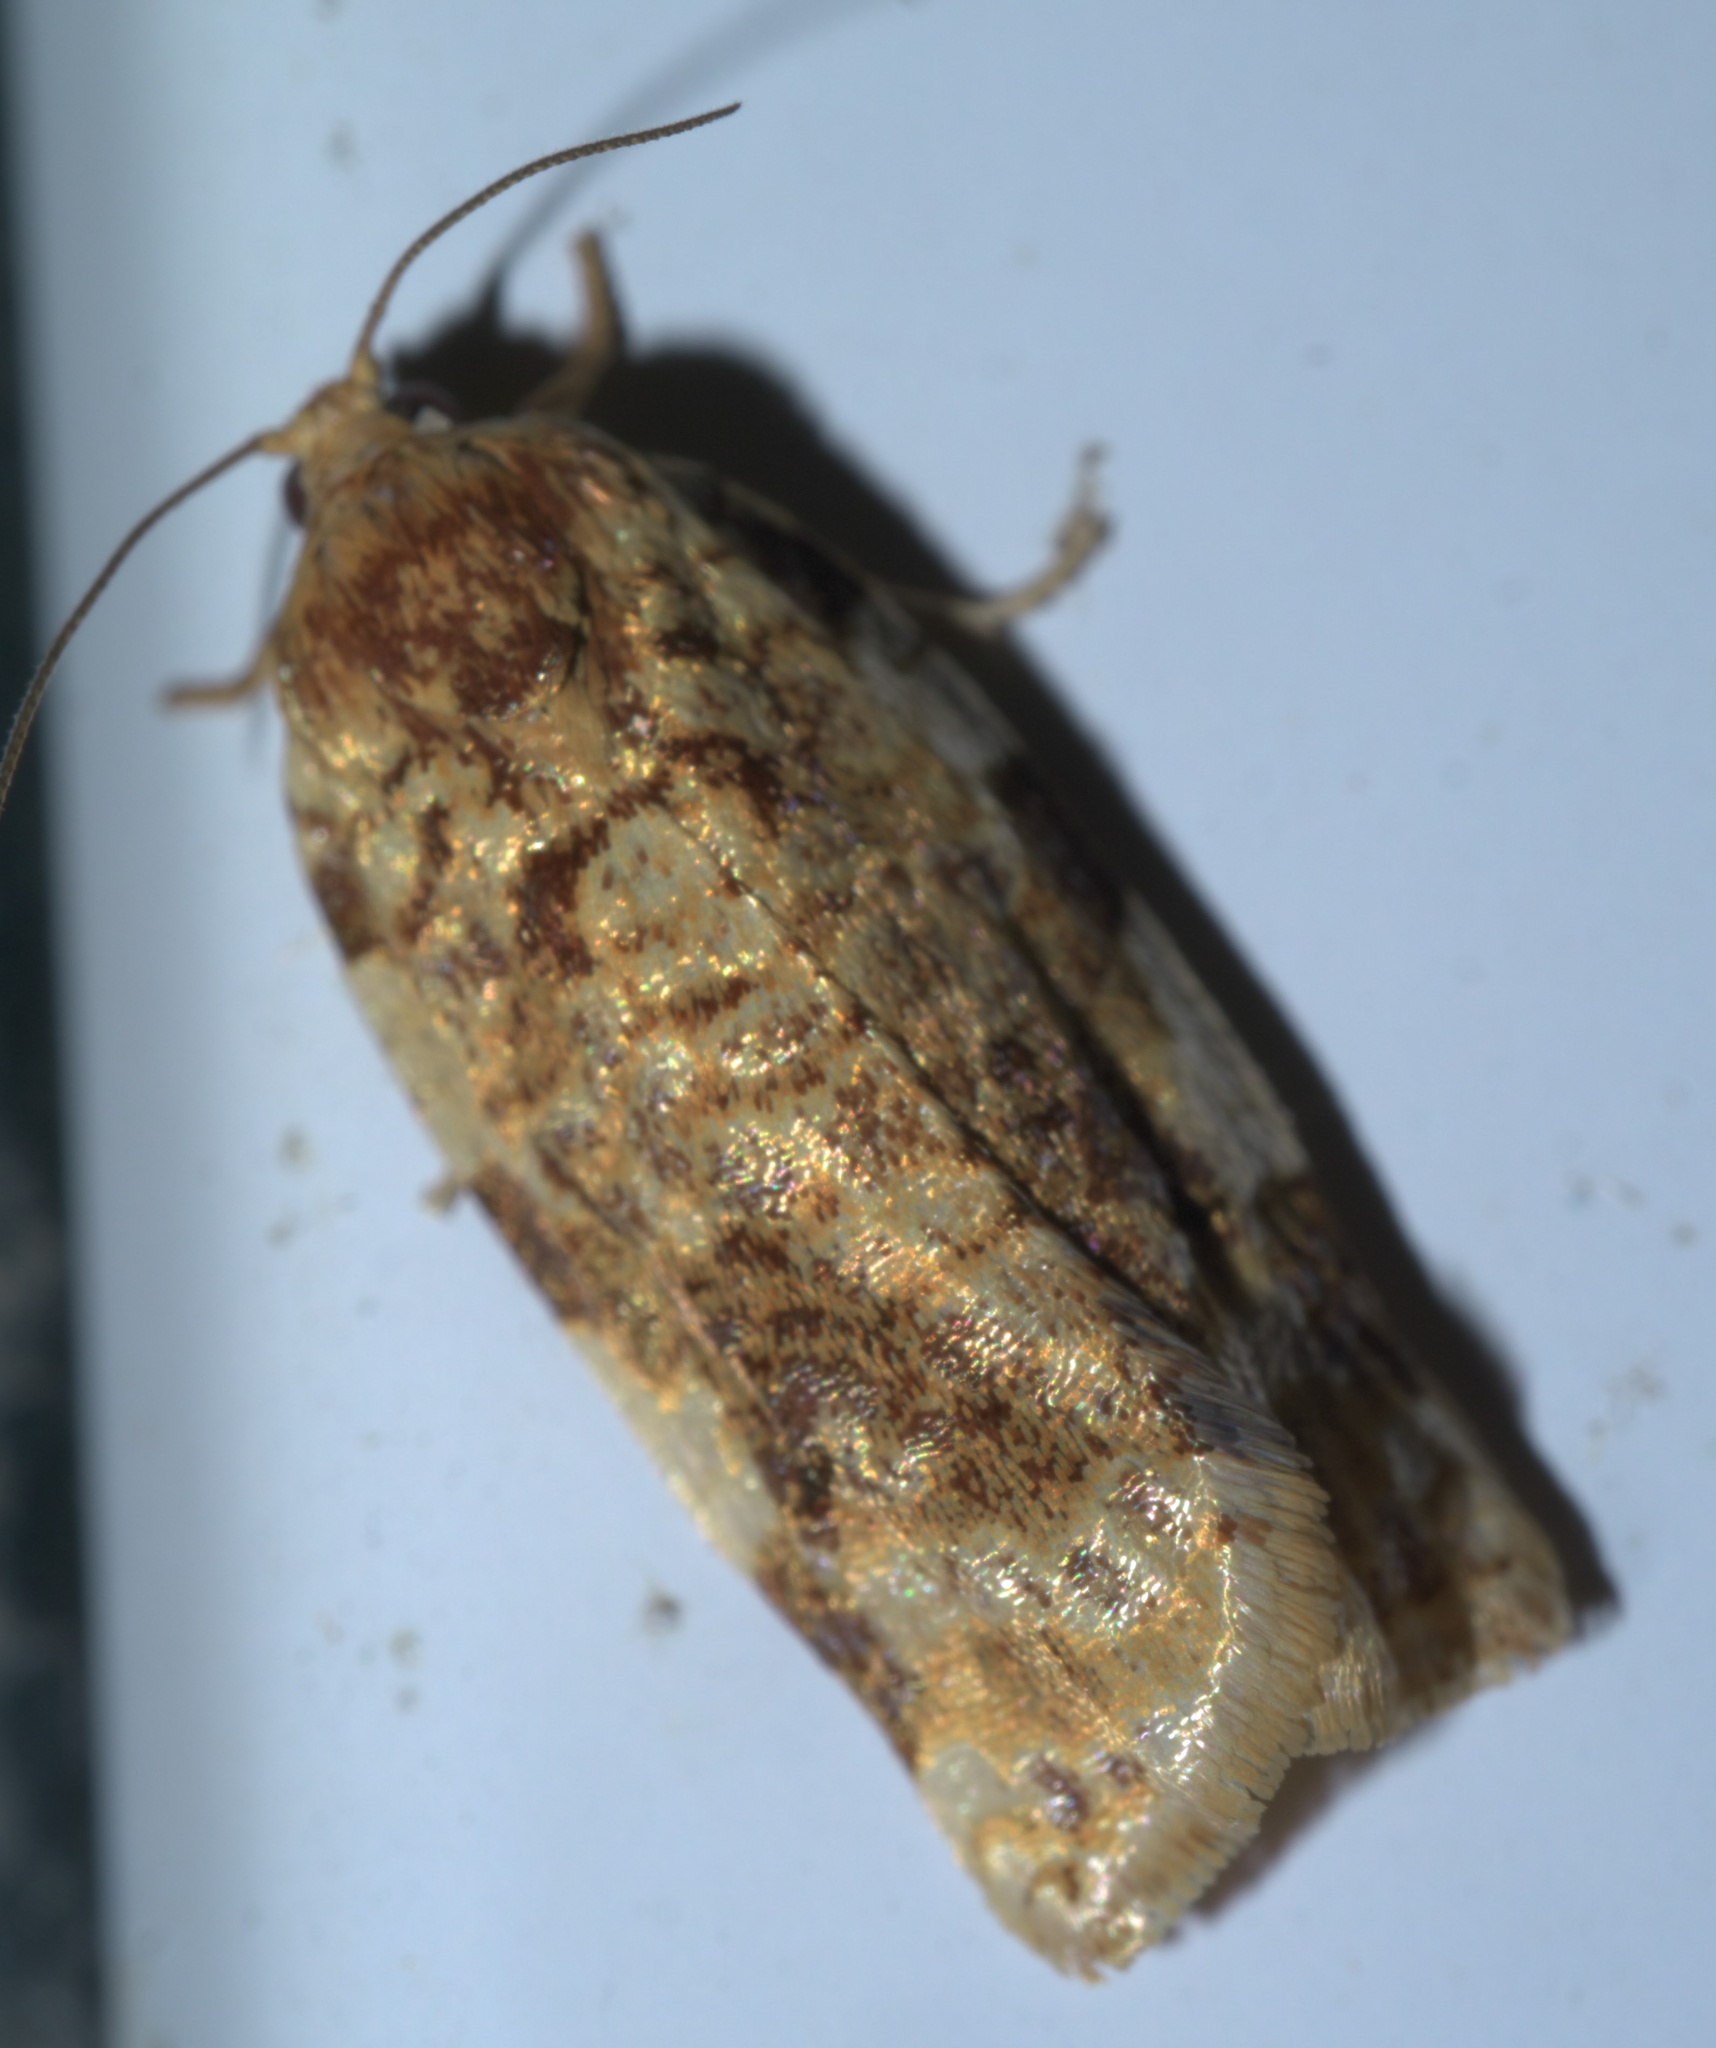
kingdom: Animalia
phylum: Arthropoda
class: Insecta
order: Lepidoptera
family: Tortricidae
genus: Archips
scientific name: Archips argyrospila
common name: Fruit-tree leafroller moth
